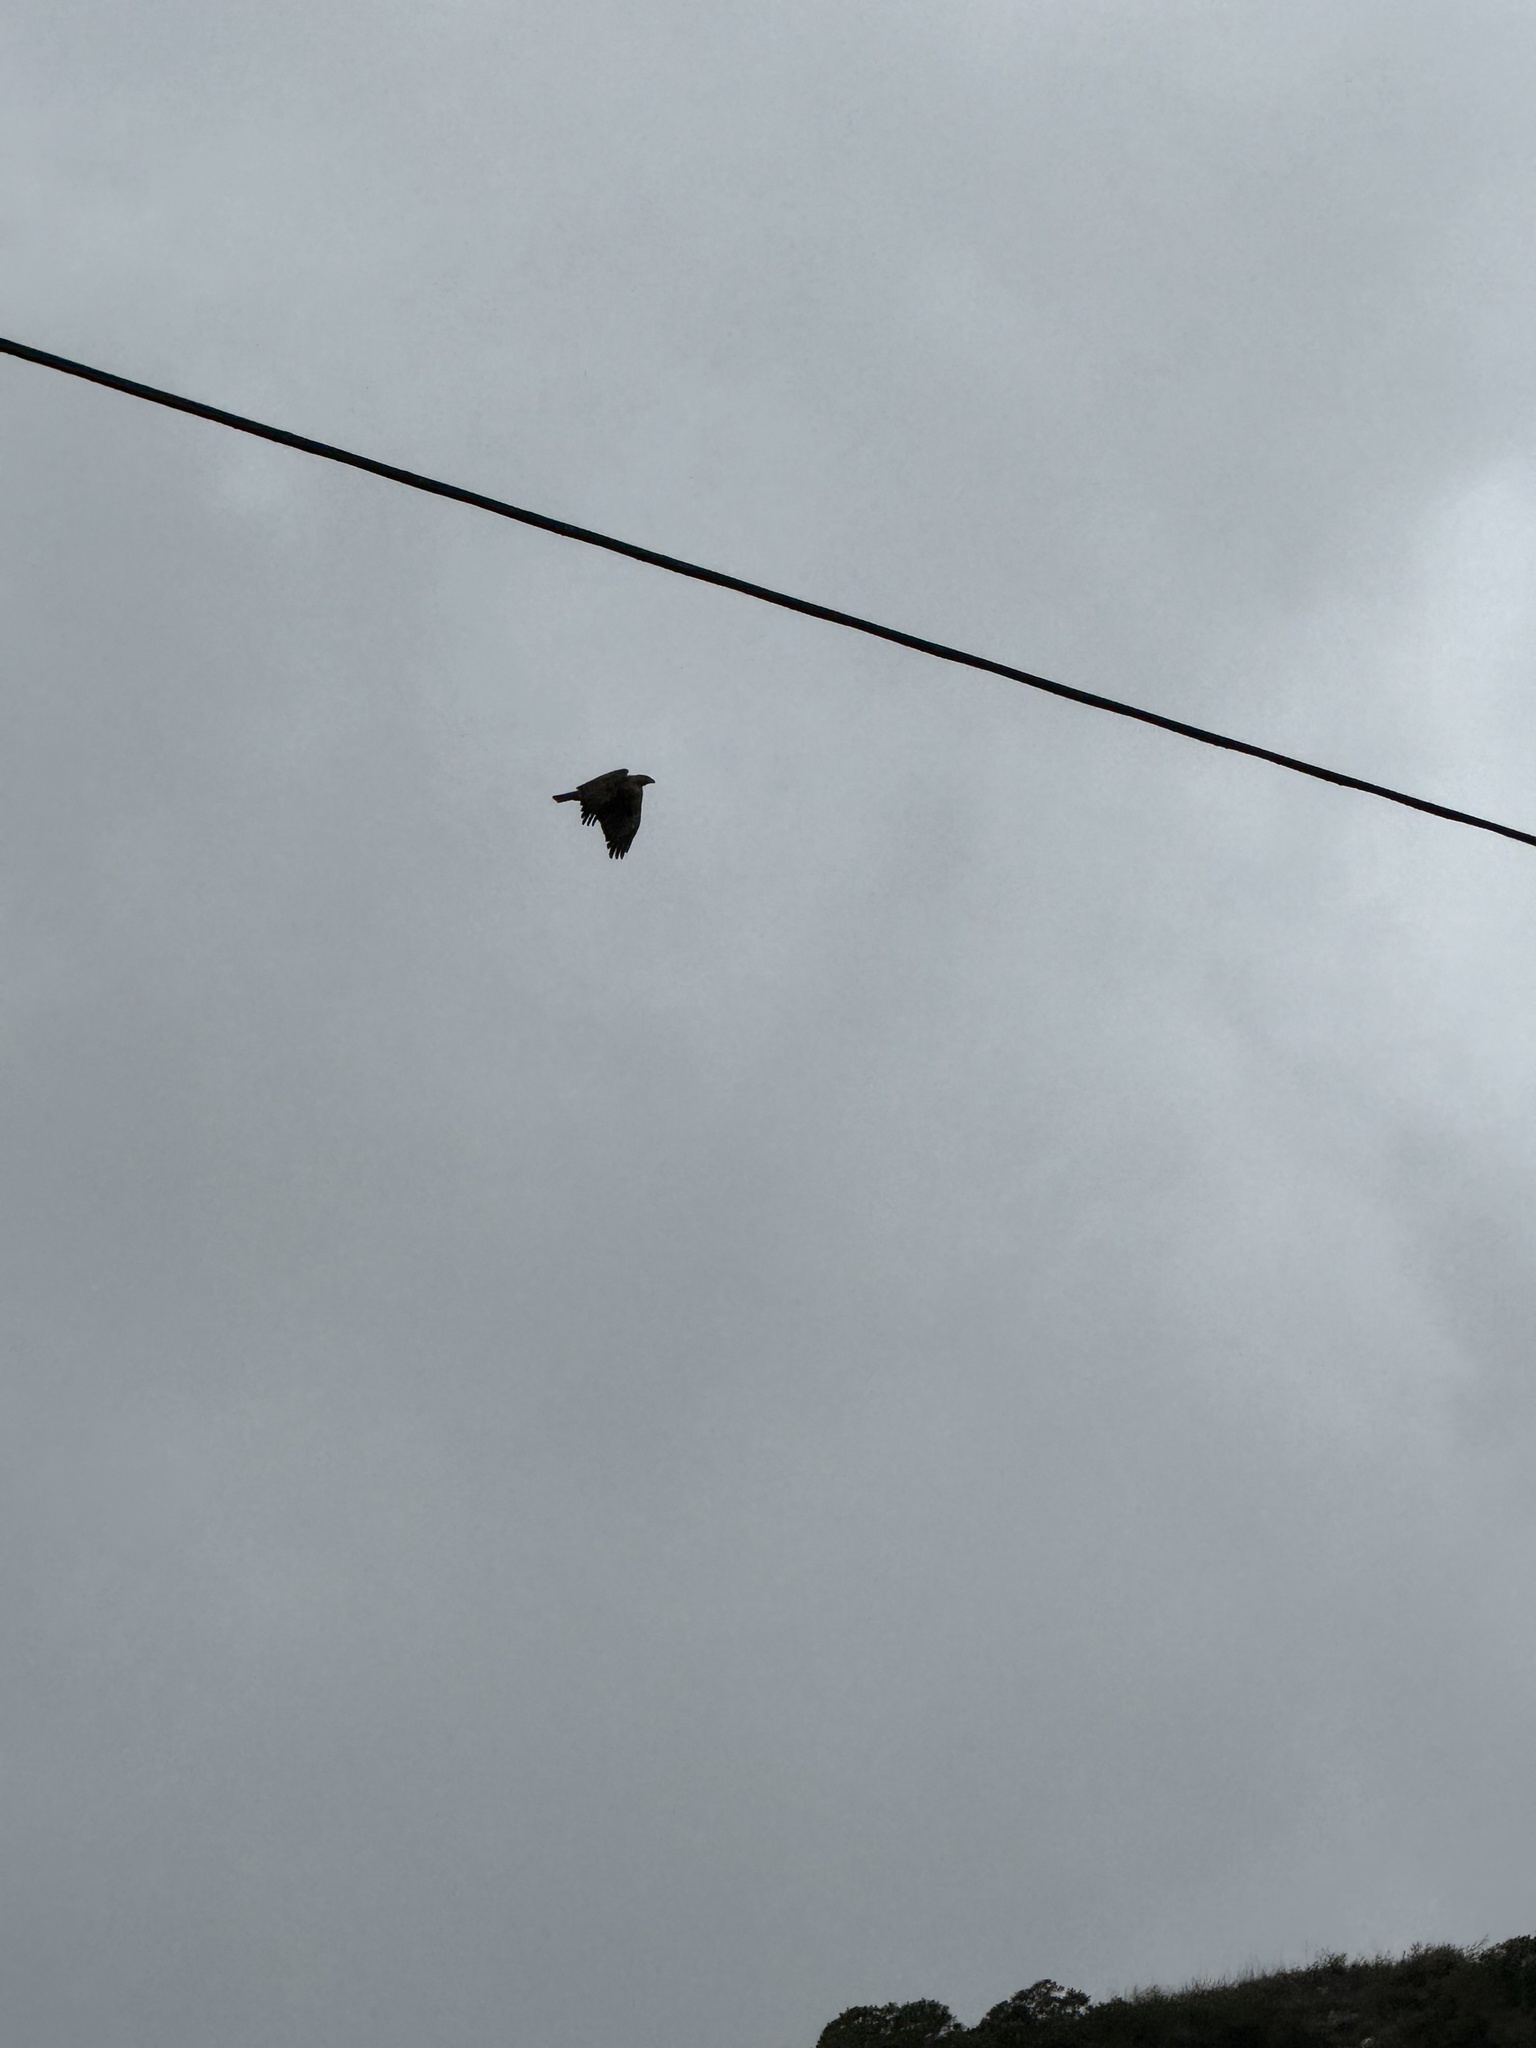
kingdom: Animalia
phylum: Chordata
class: Aves
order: Accipitriformes
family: Accipitridae
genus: Buteo
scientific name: Buteo jamaicensis
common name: Red-tailed hawk
